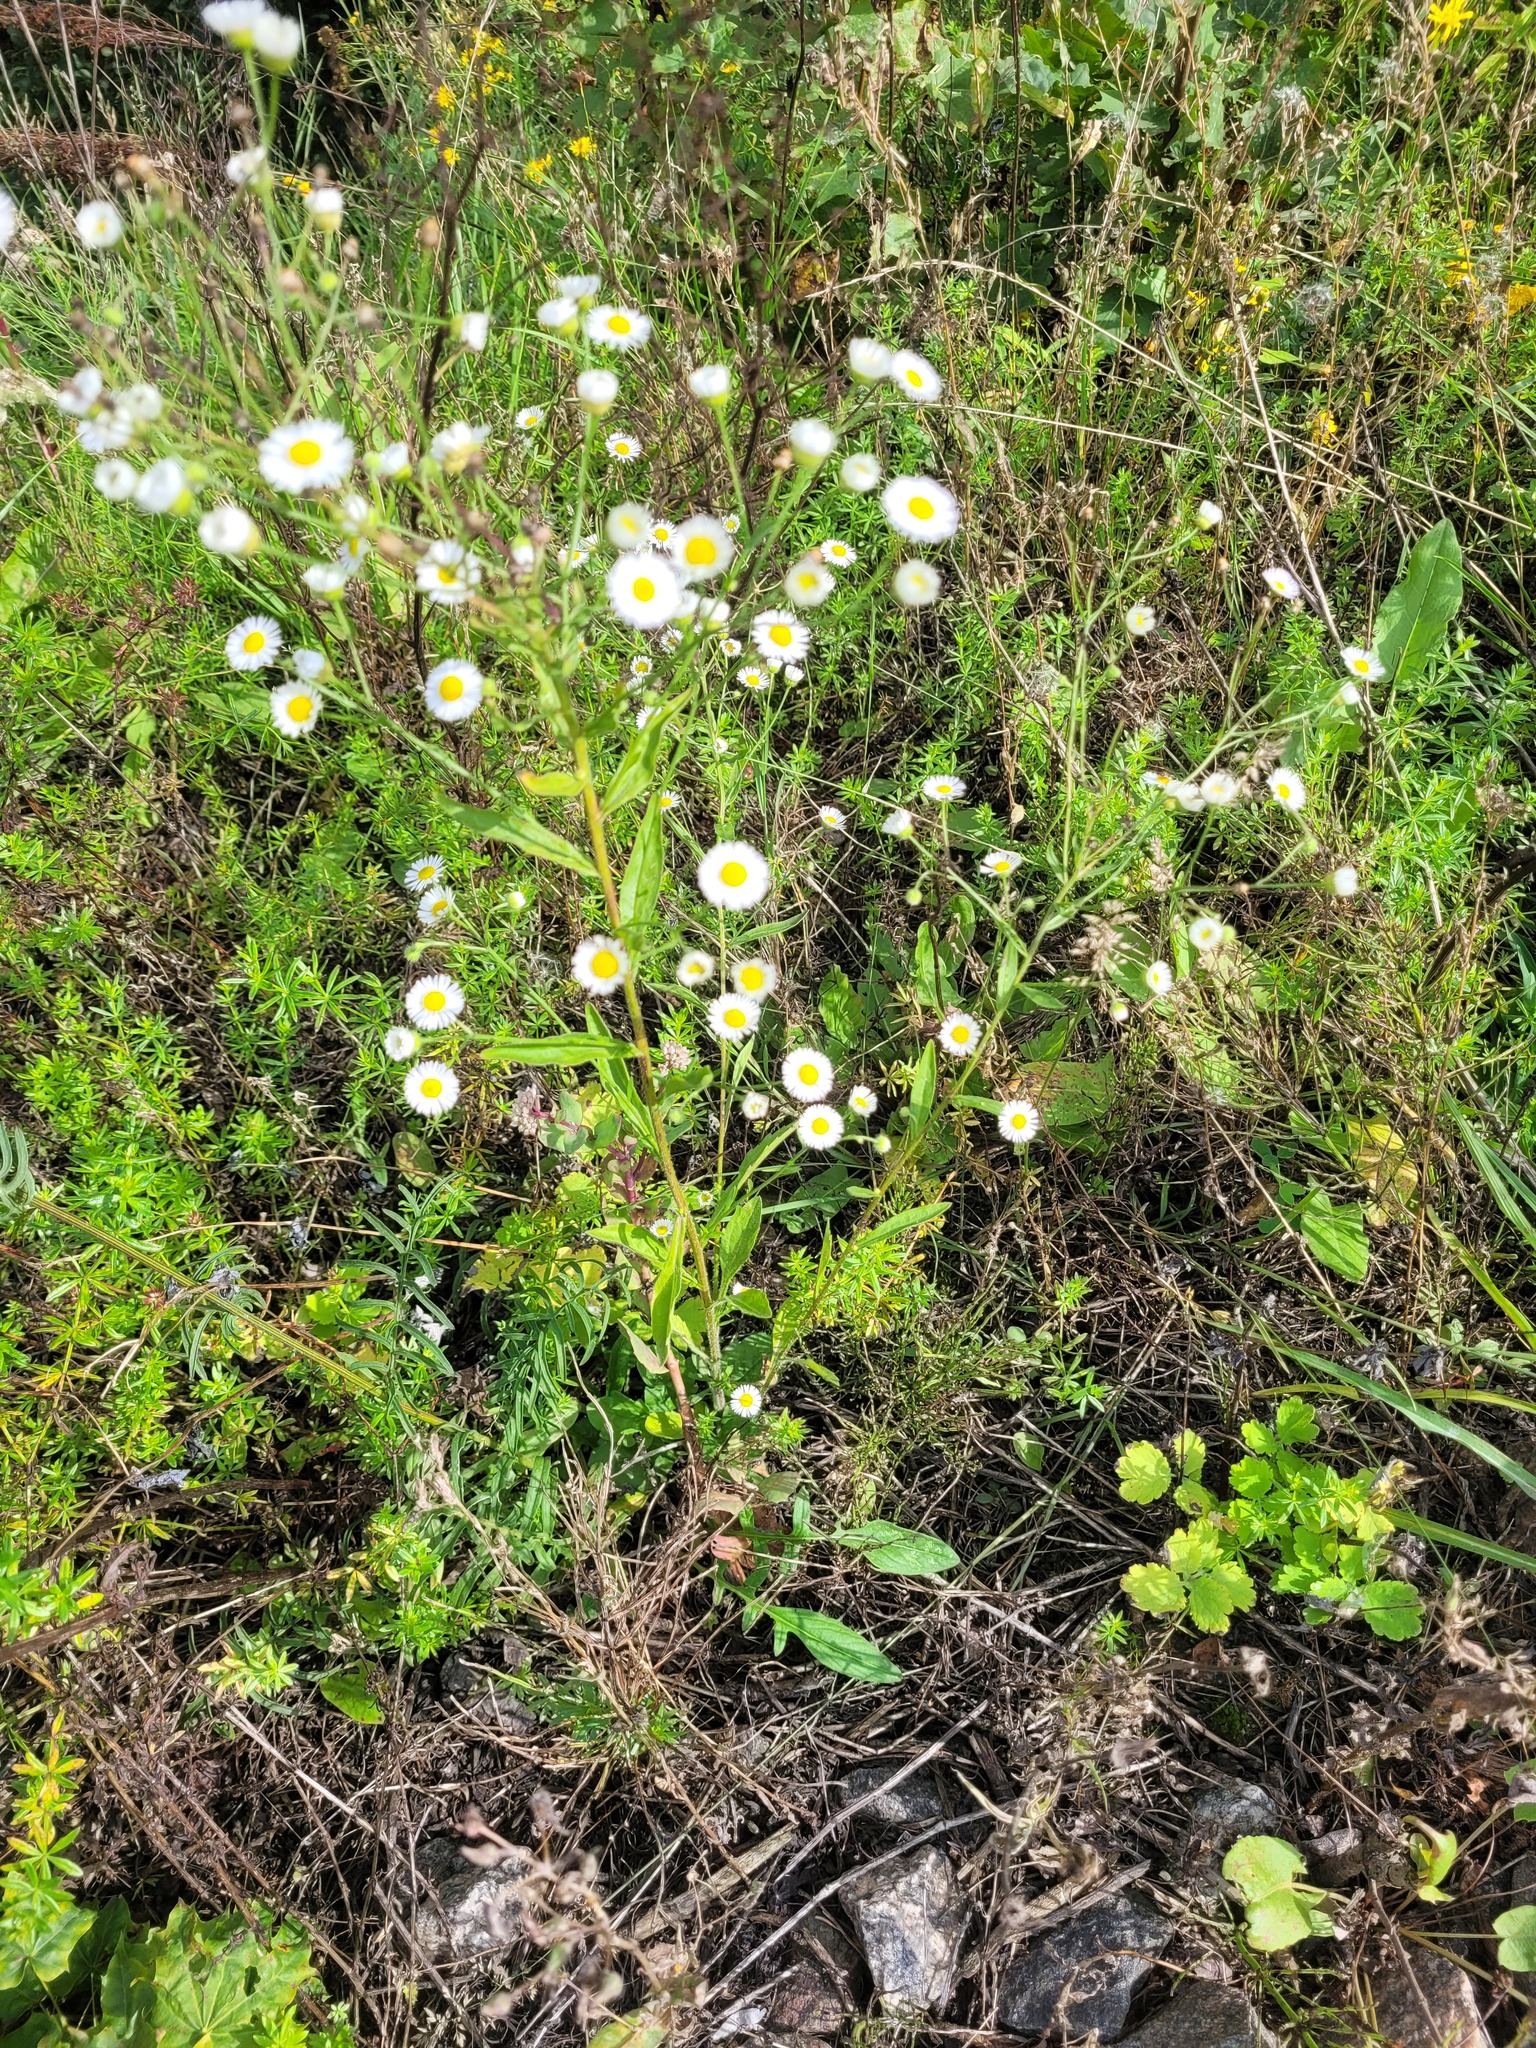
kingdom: Plantae
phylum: Tracheophyta
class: Magnoliopsida
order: Asterales
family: Asteraceae
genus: Erigeron
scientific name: Erigeron annuus
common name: Tall fleabane
